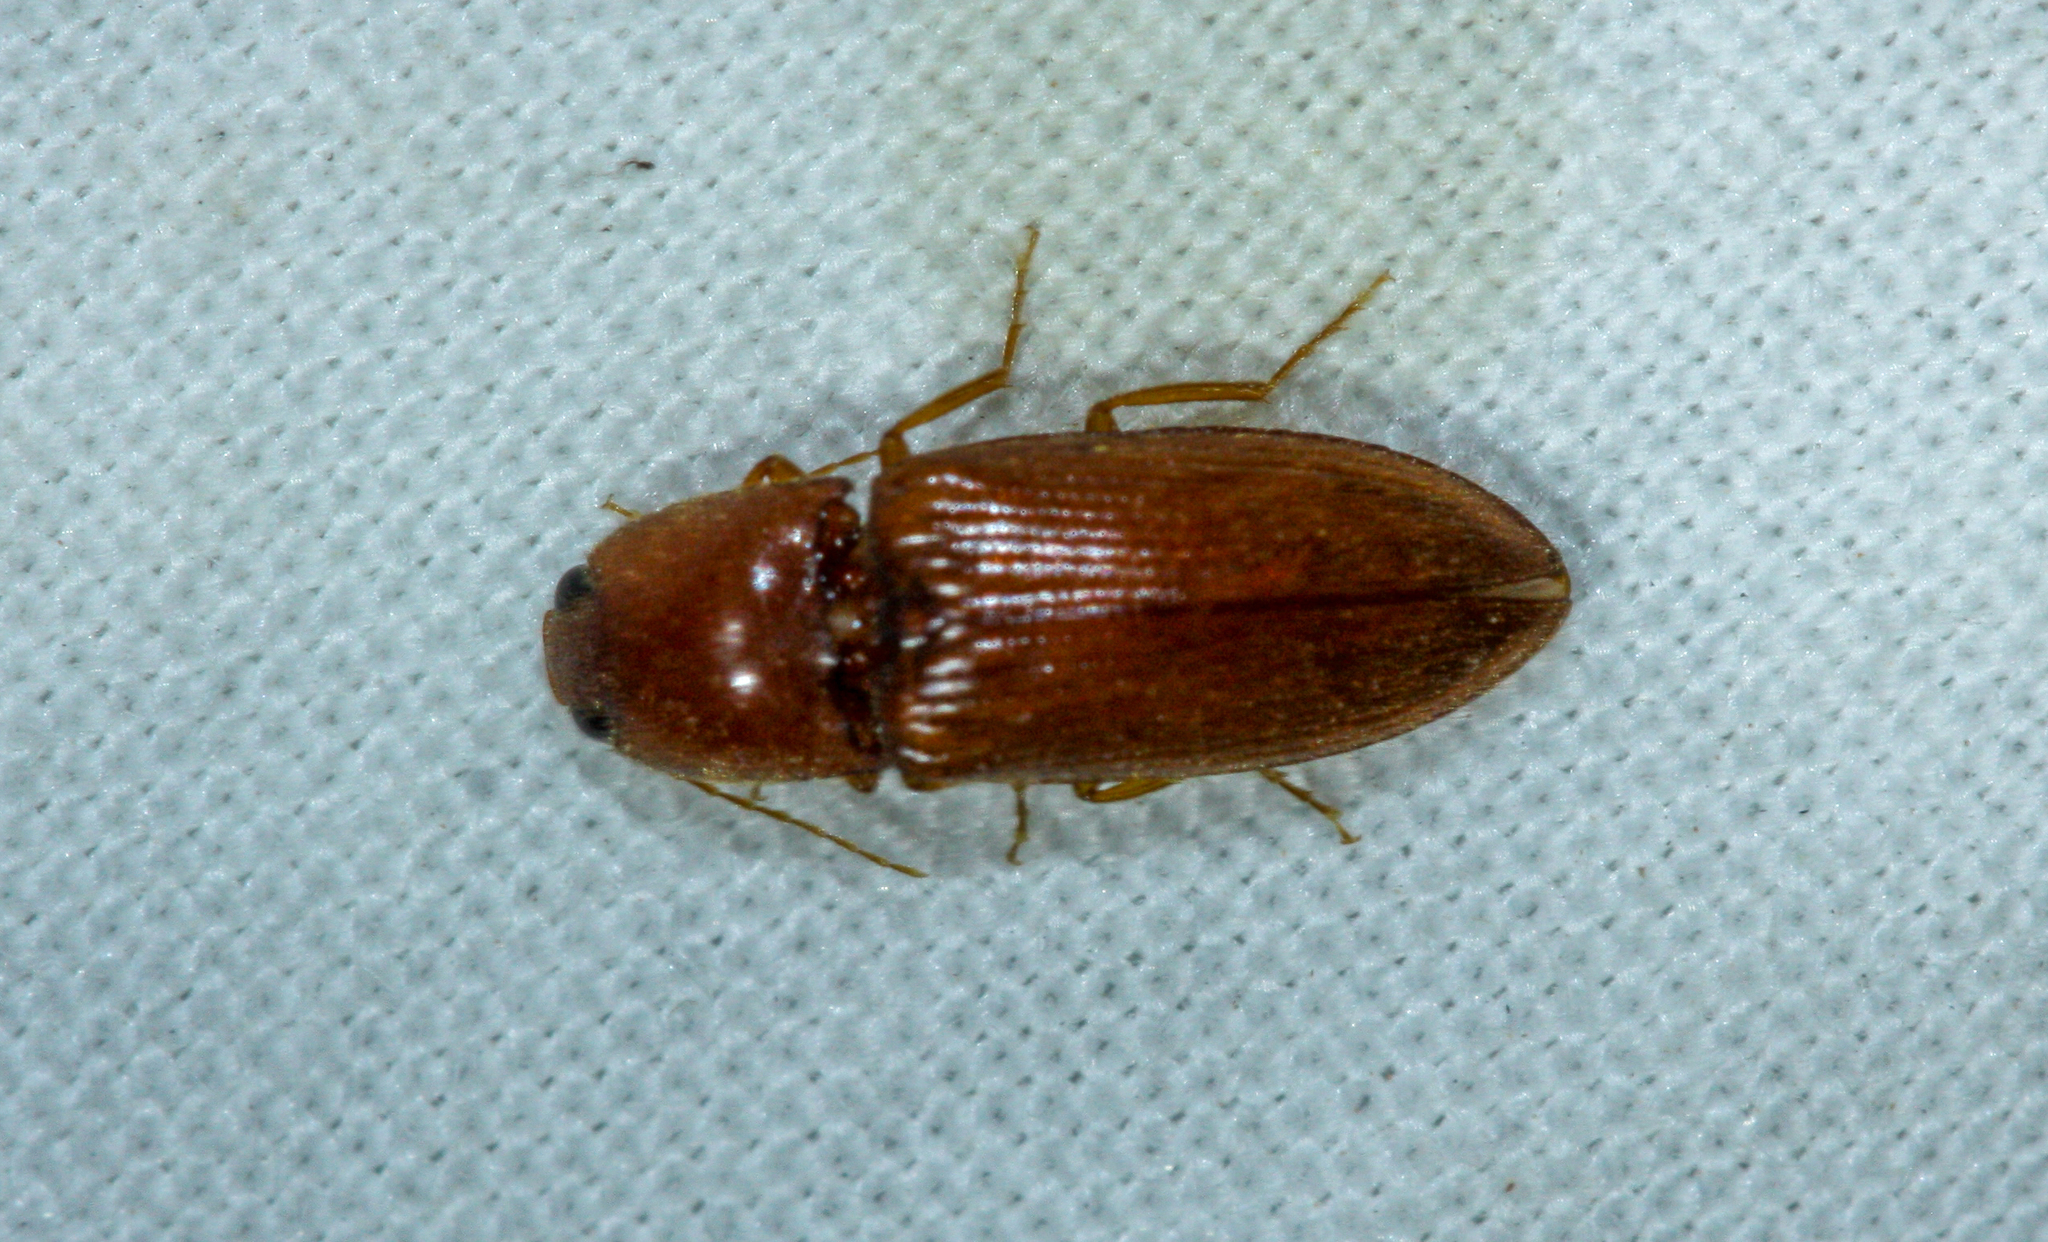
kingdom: Animalia
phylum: Arthropoda
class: Insecta
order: Coleoptera
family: Elateridae
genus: Esthesopus
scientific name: Esthesopus
